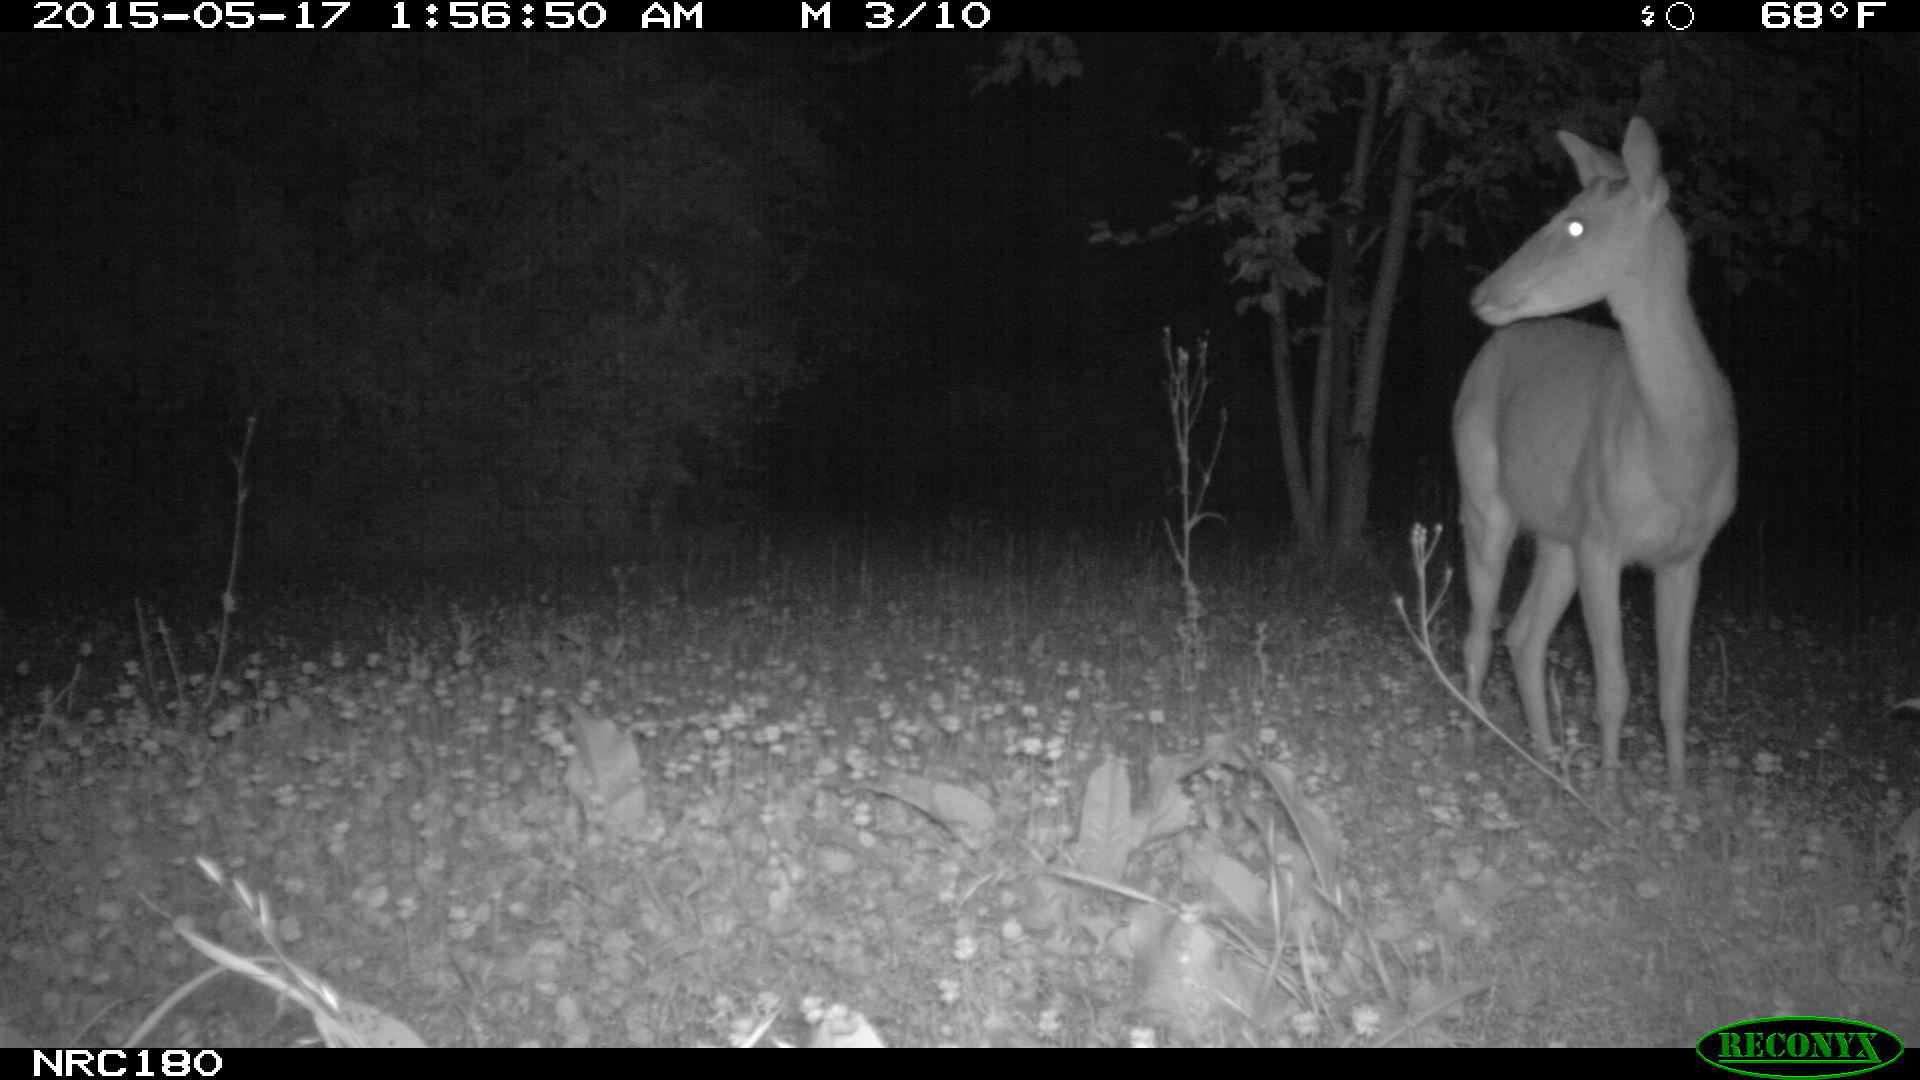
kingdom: Animalia
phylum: Chordata
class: Mammalia
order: Artiodactyla
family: Cervidae
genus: Odocoileus
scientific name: Odocoileus virginianus
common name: White-tailed deer
